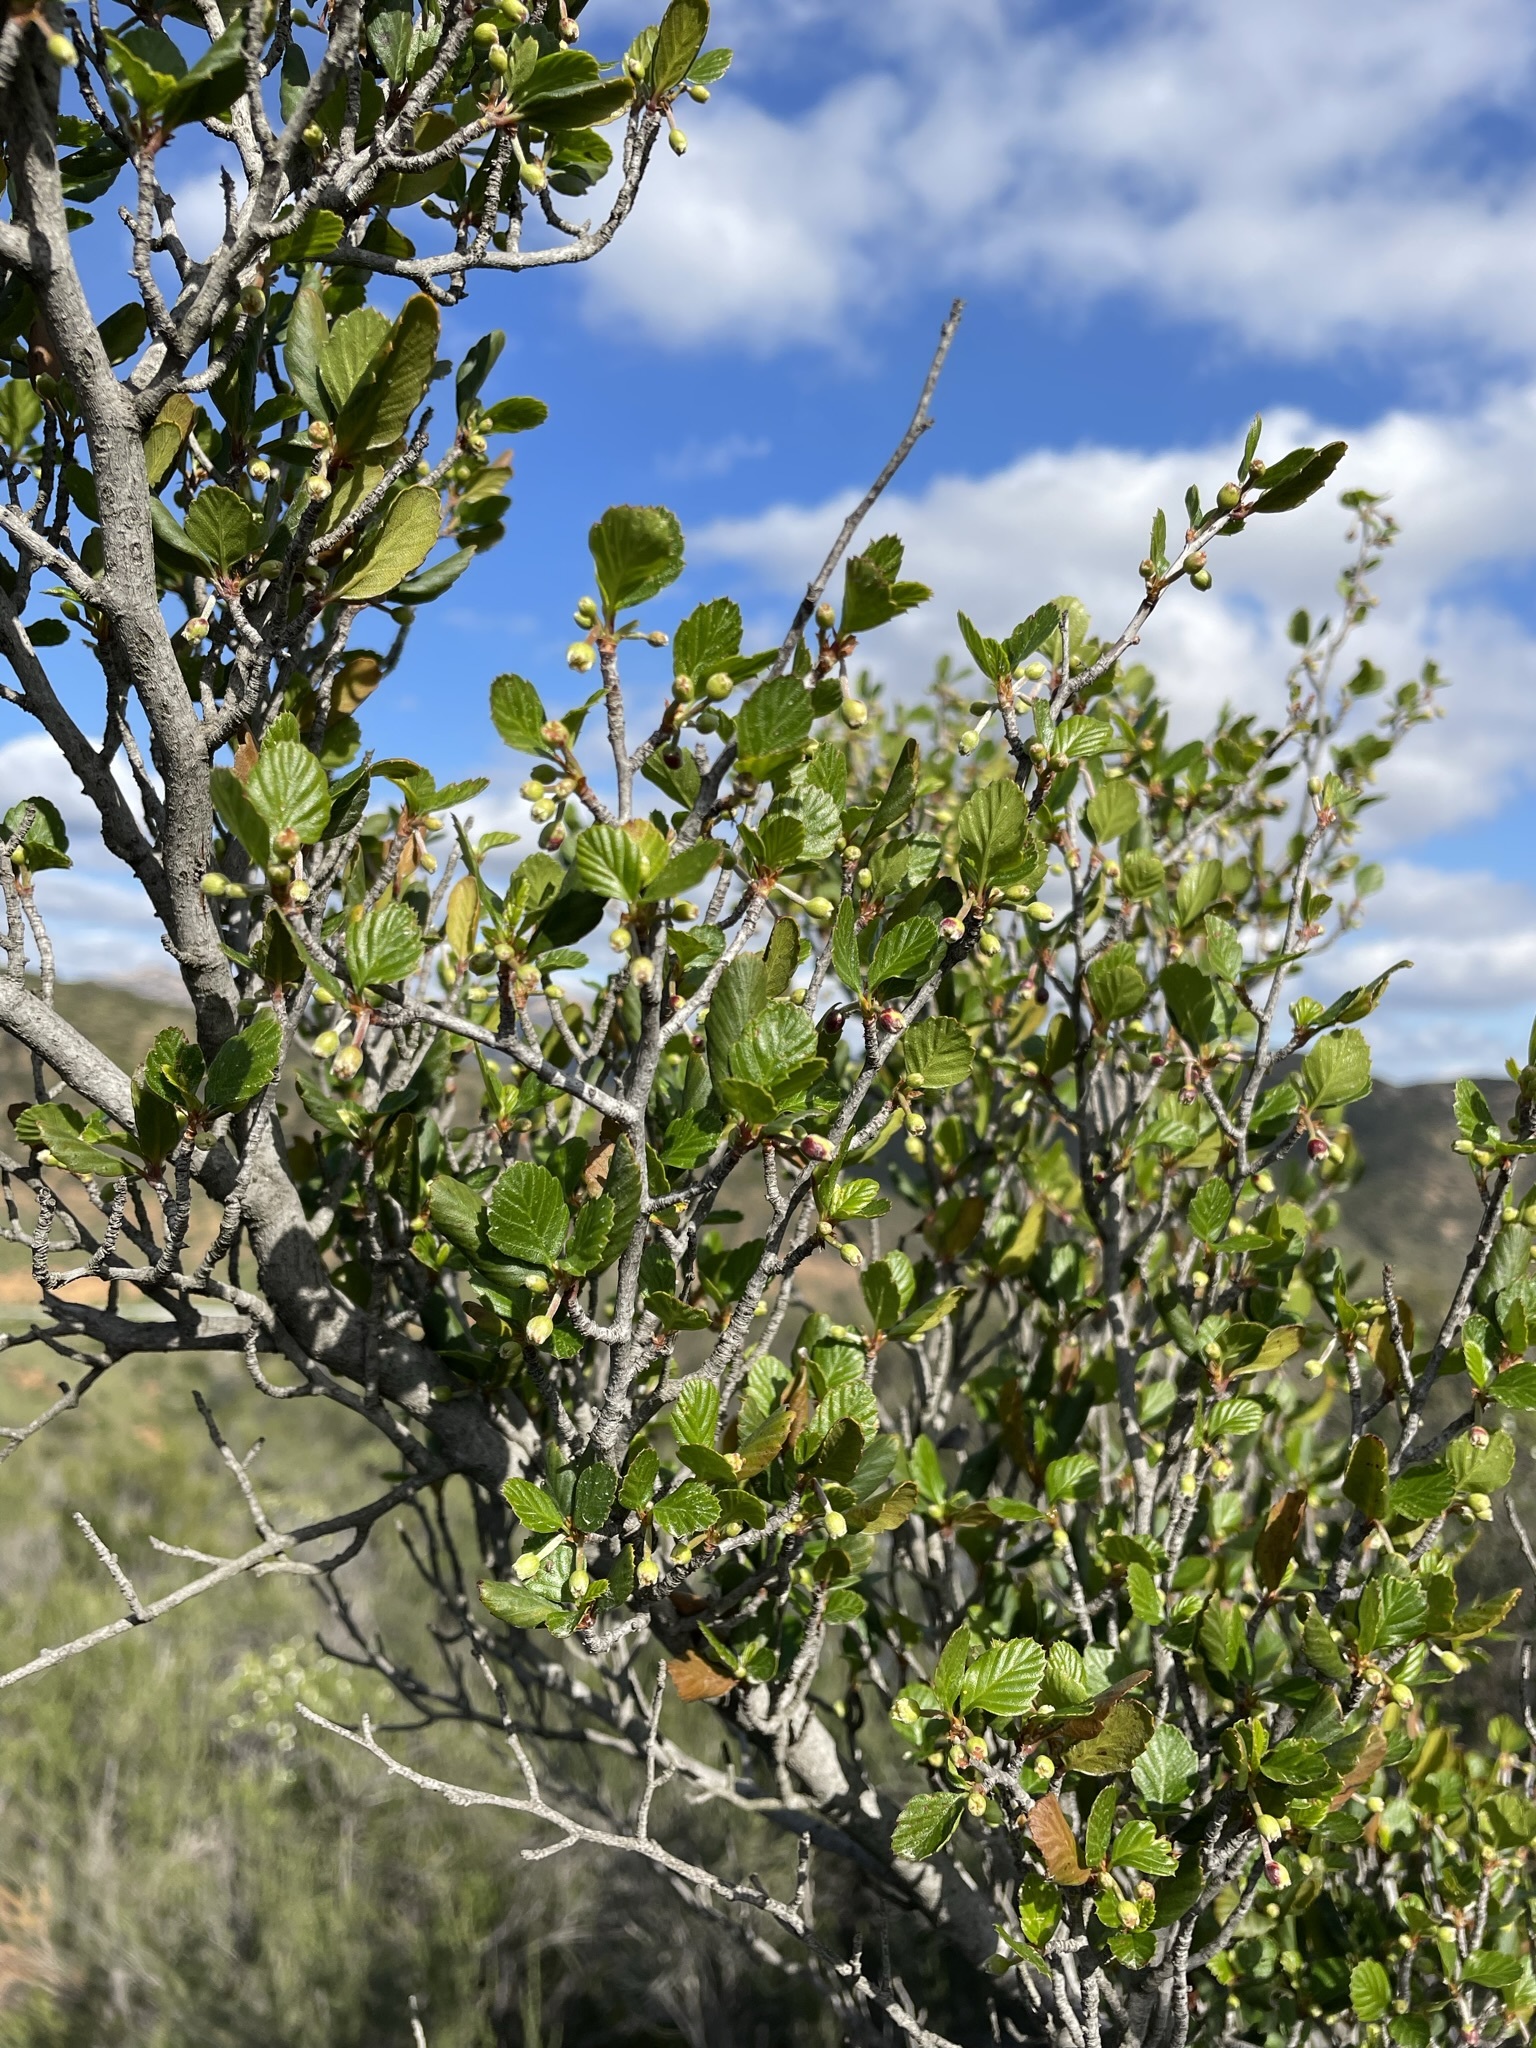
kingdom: Plantae
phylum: Tracheophyta
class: Magnoliopsida
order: Rosales
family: Rosaceae
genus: Cercocarpus
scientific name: Cercocarpus montanus
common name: Alder-leaf cercocarpus
